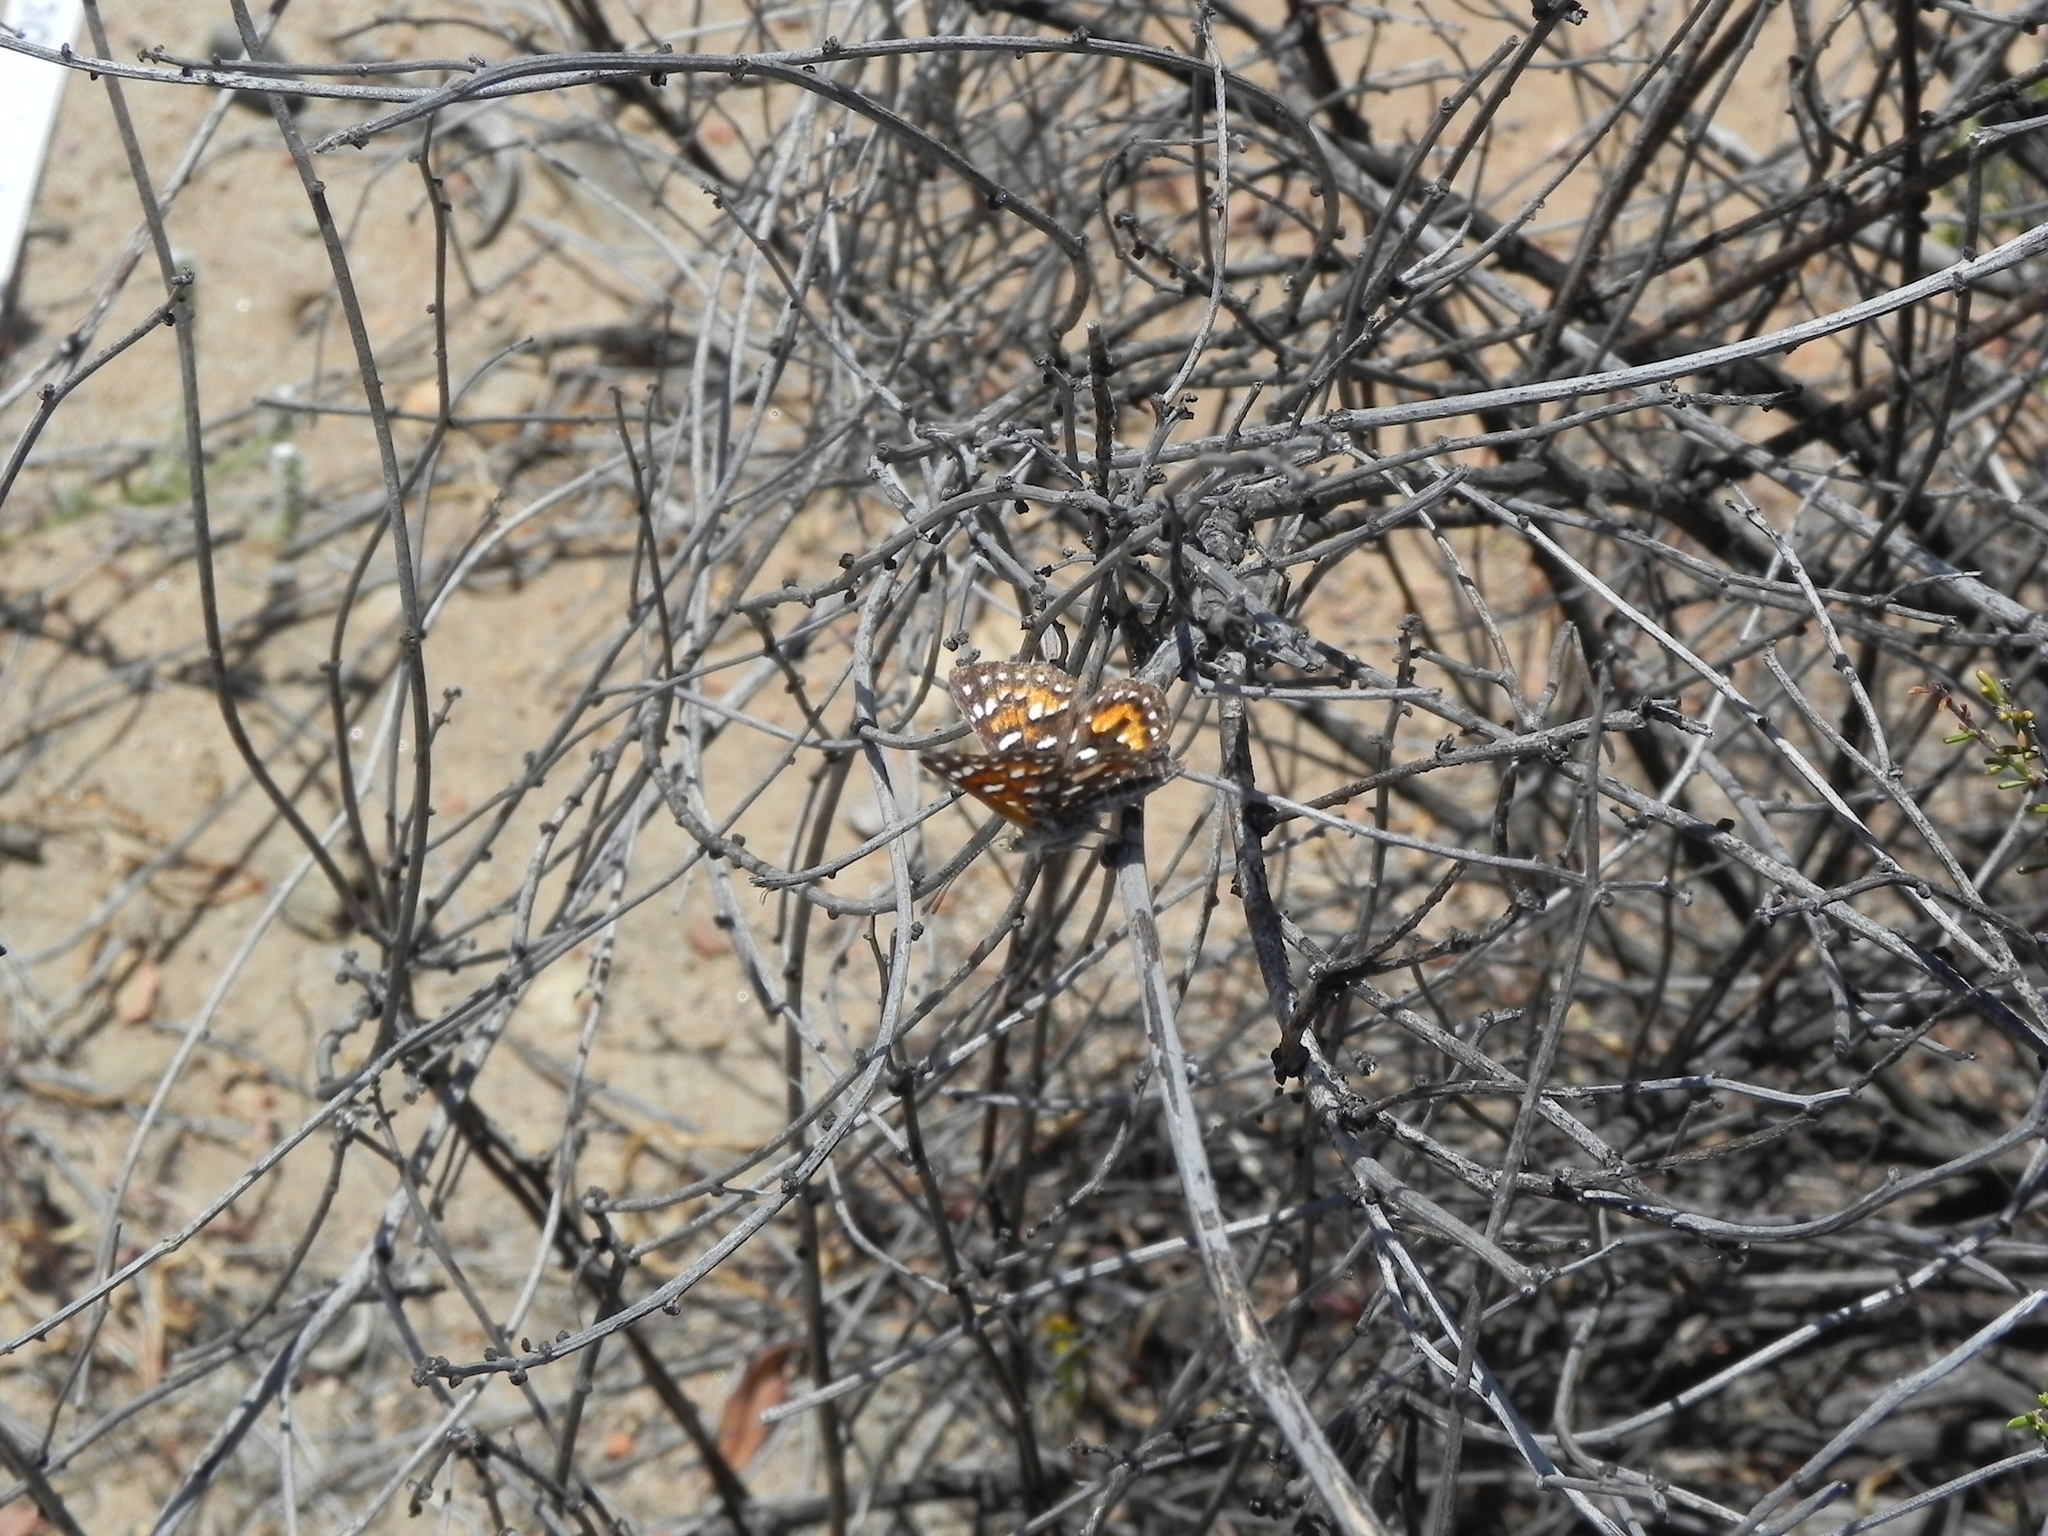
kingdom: Animalia
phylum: Arthropoda
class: Insecta
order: Lepidoptera
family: Riodinidae
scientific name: Riodinidae
